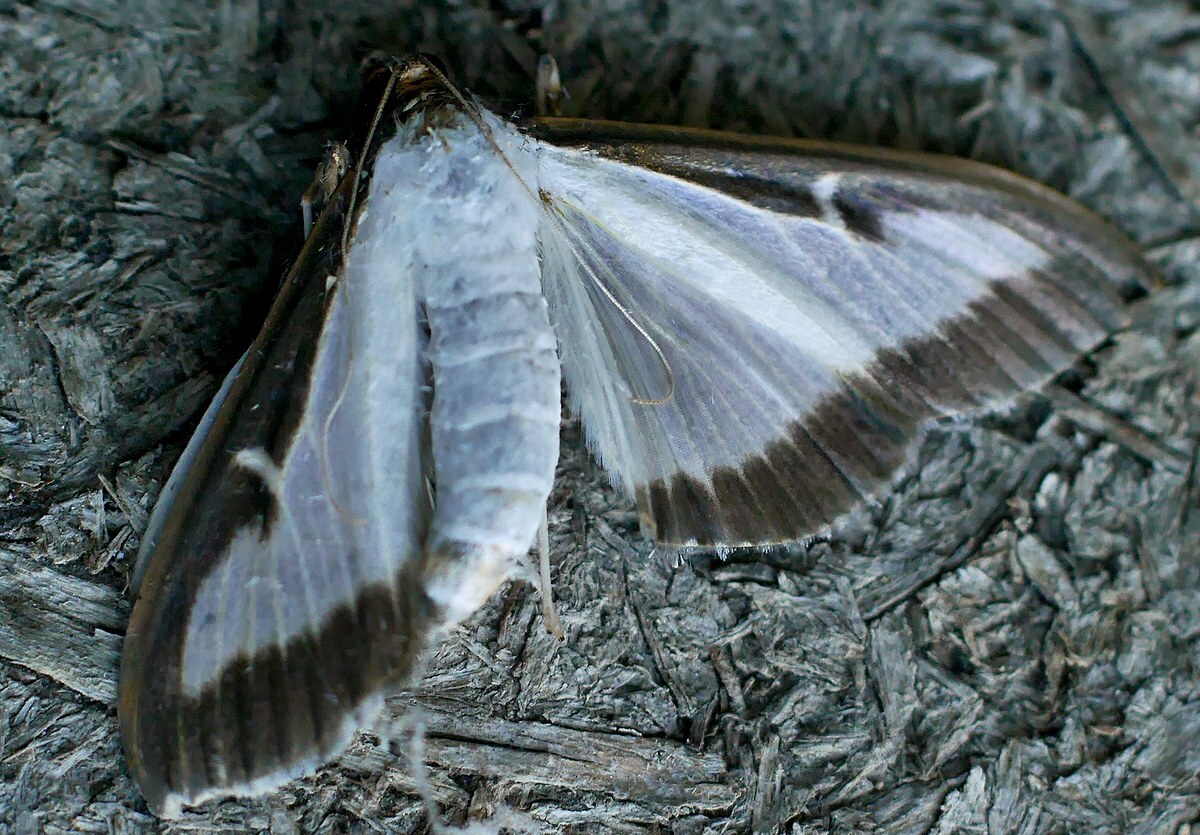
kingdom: Animalia
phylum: Arthropoda
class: Insecta
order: Lepidoptera
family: Crambidae
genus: Cydalima
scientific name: Cydalima perspectalis
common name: Box tree moth
